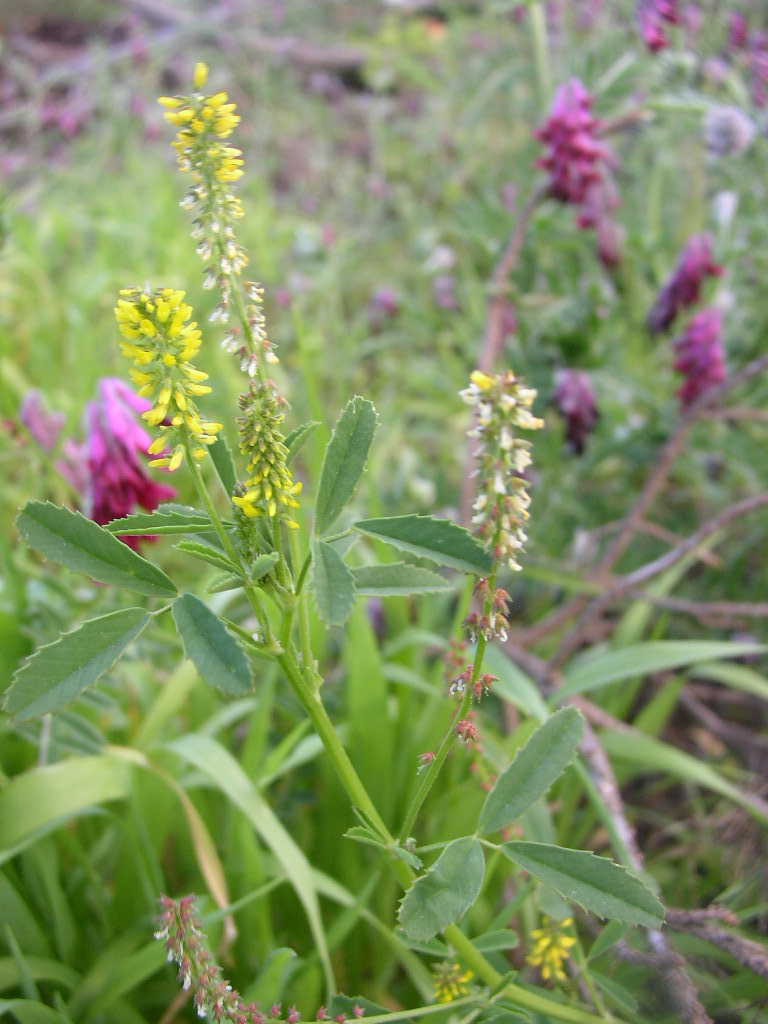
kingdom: Plantae
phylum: Tracheophyta
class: Magnoliopsida
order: Fabales
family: Fabaceae
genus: Melilotus
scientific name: Melilotus indicus
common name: Small melilot
